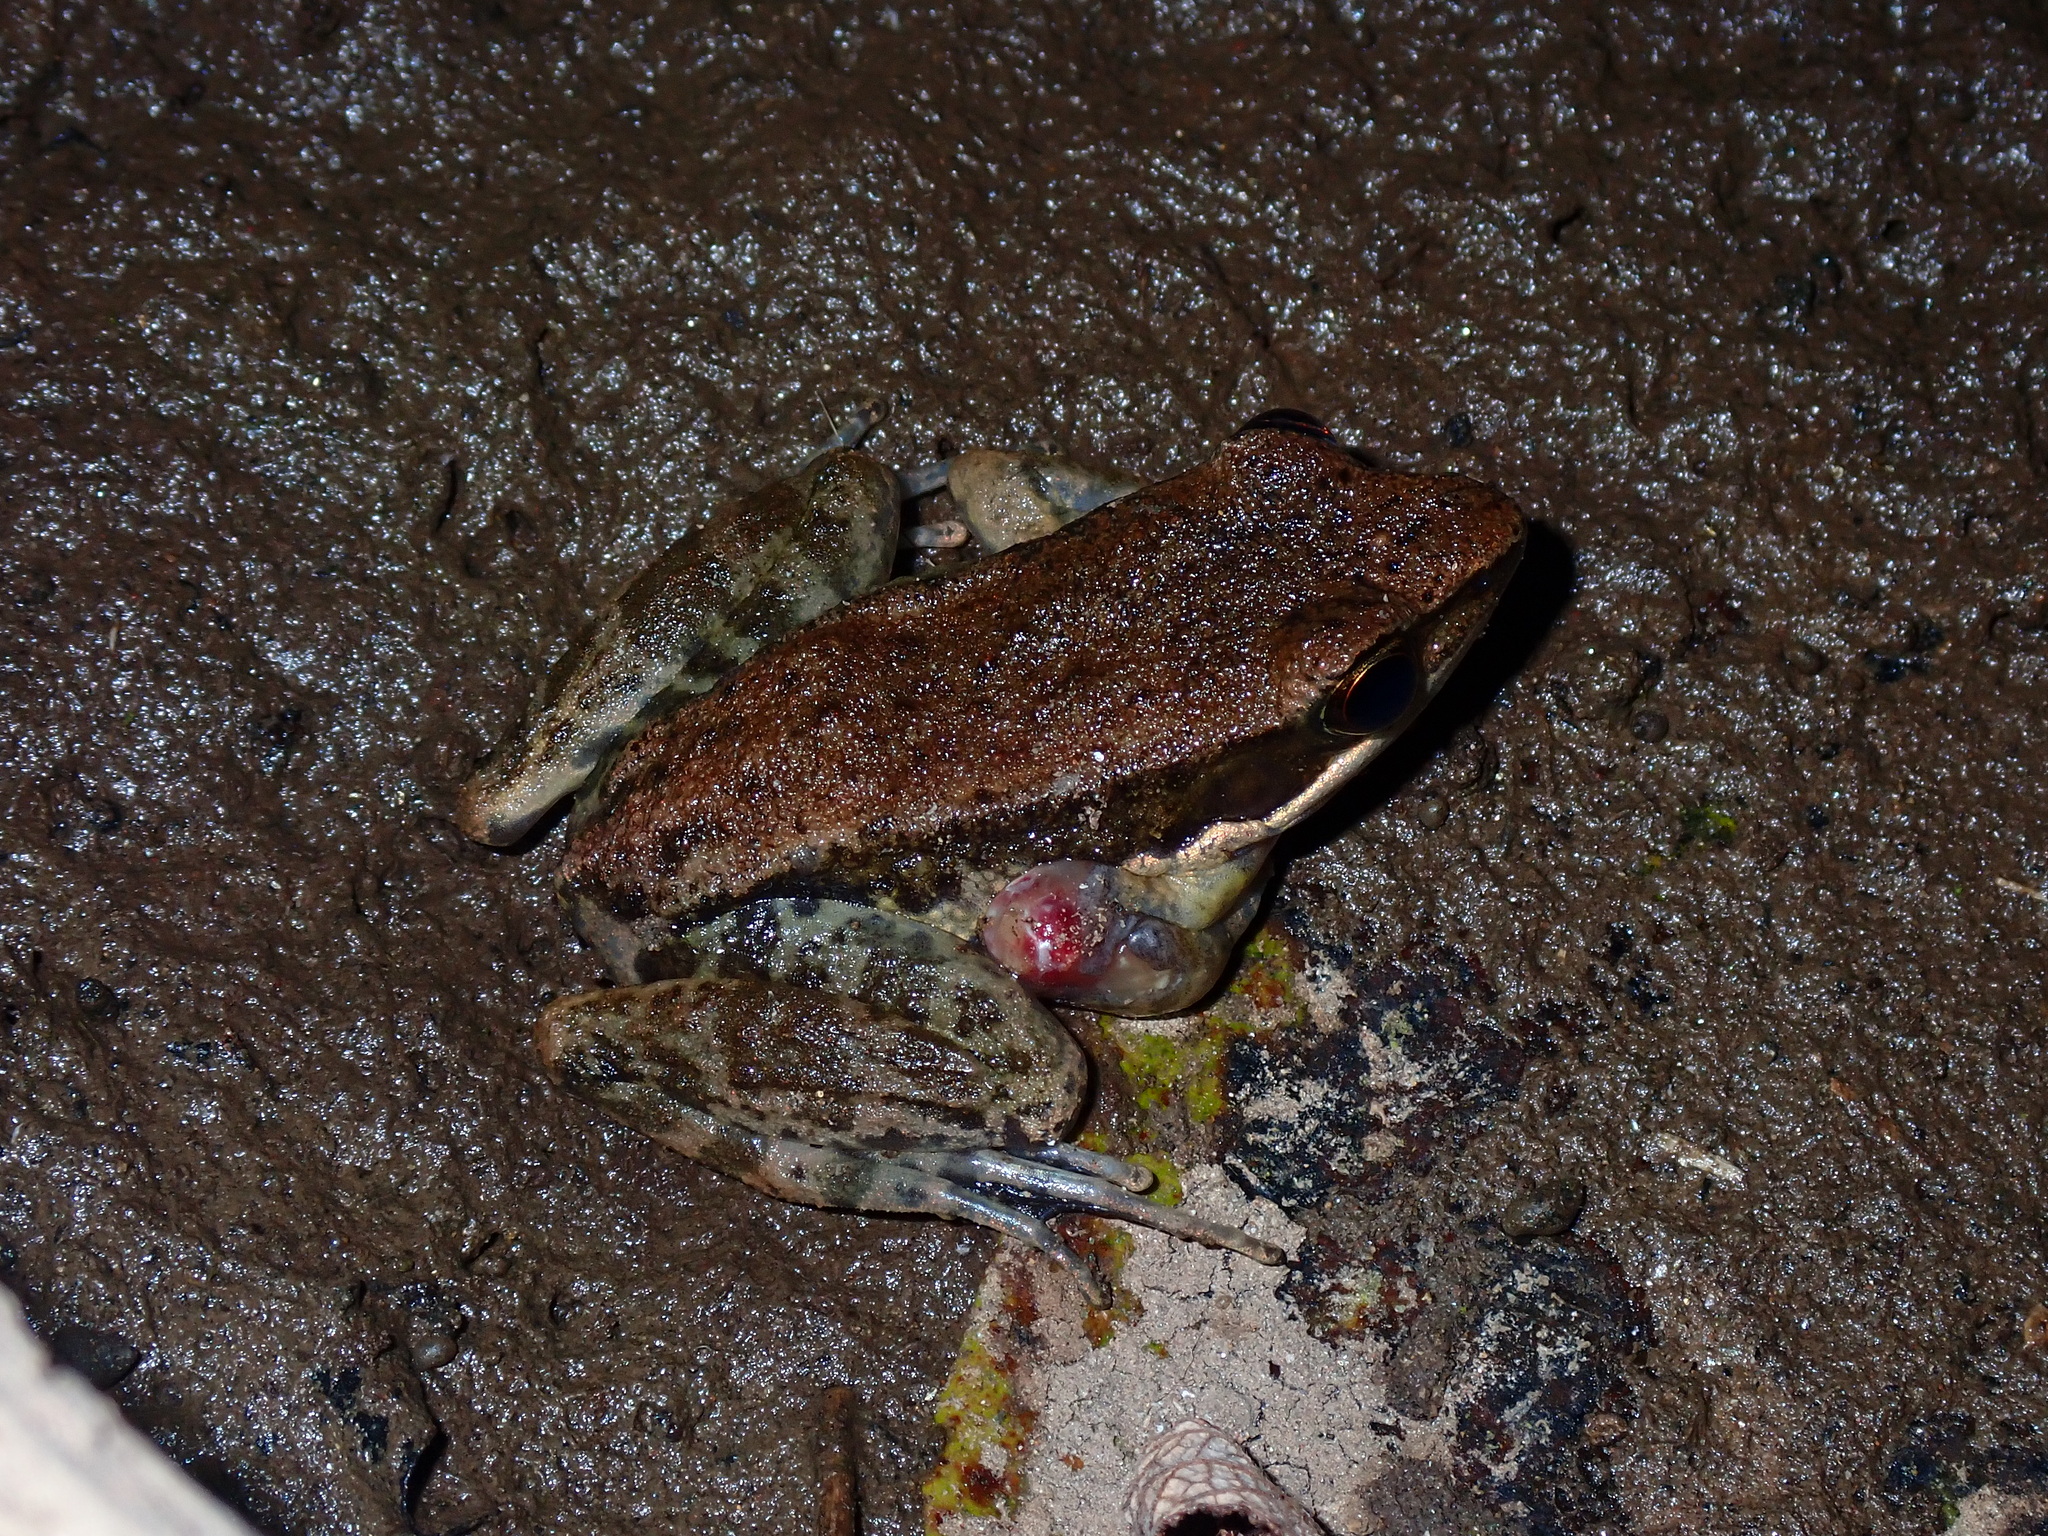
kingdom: Animalia
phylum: Chordata
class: Amphibia
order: Anura
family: Ranidae
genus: Sylvirana
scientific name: Sylvirana nigrovittata
